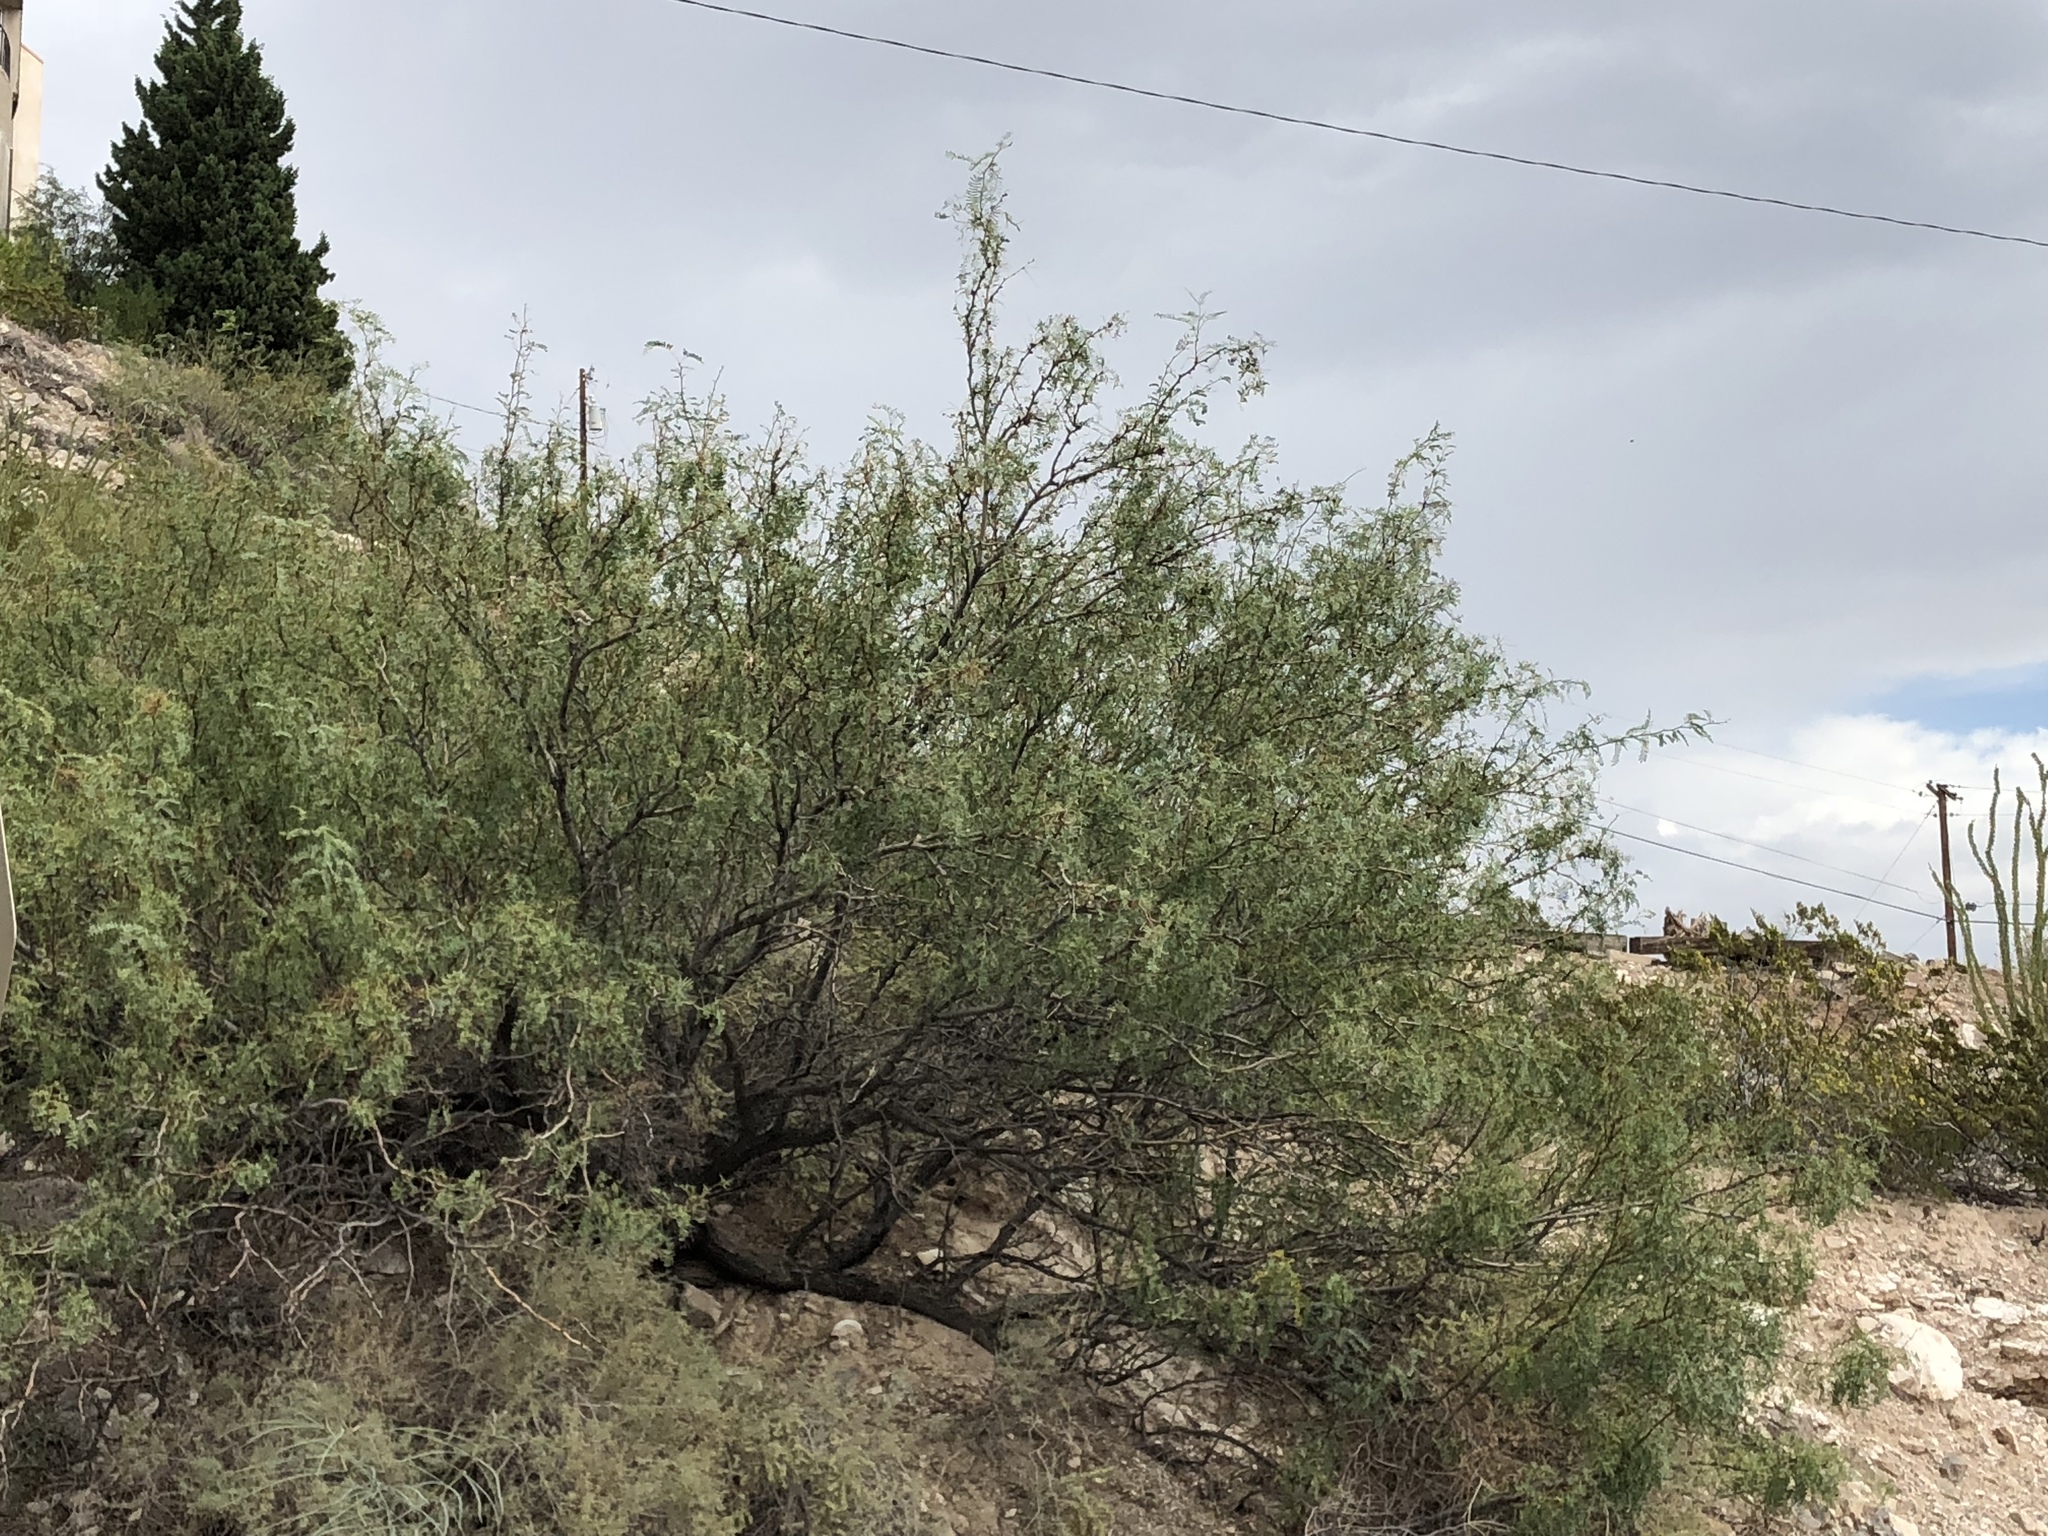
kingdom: Plantae
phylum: Tracheophyta
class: Magnoliopsida
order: Fabales
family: Fabaceae
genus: Prosopis
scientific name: Prosopis glandulosa
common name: Honey mesquite
